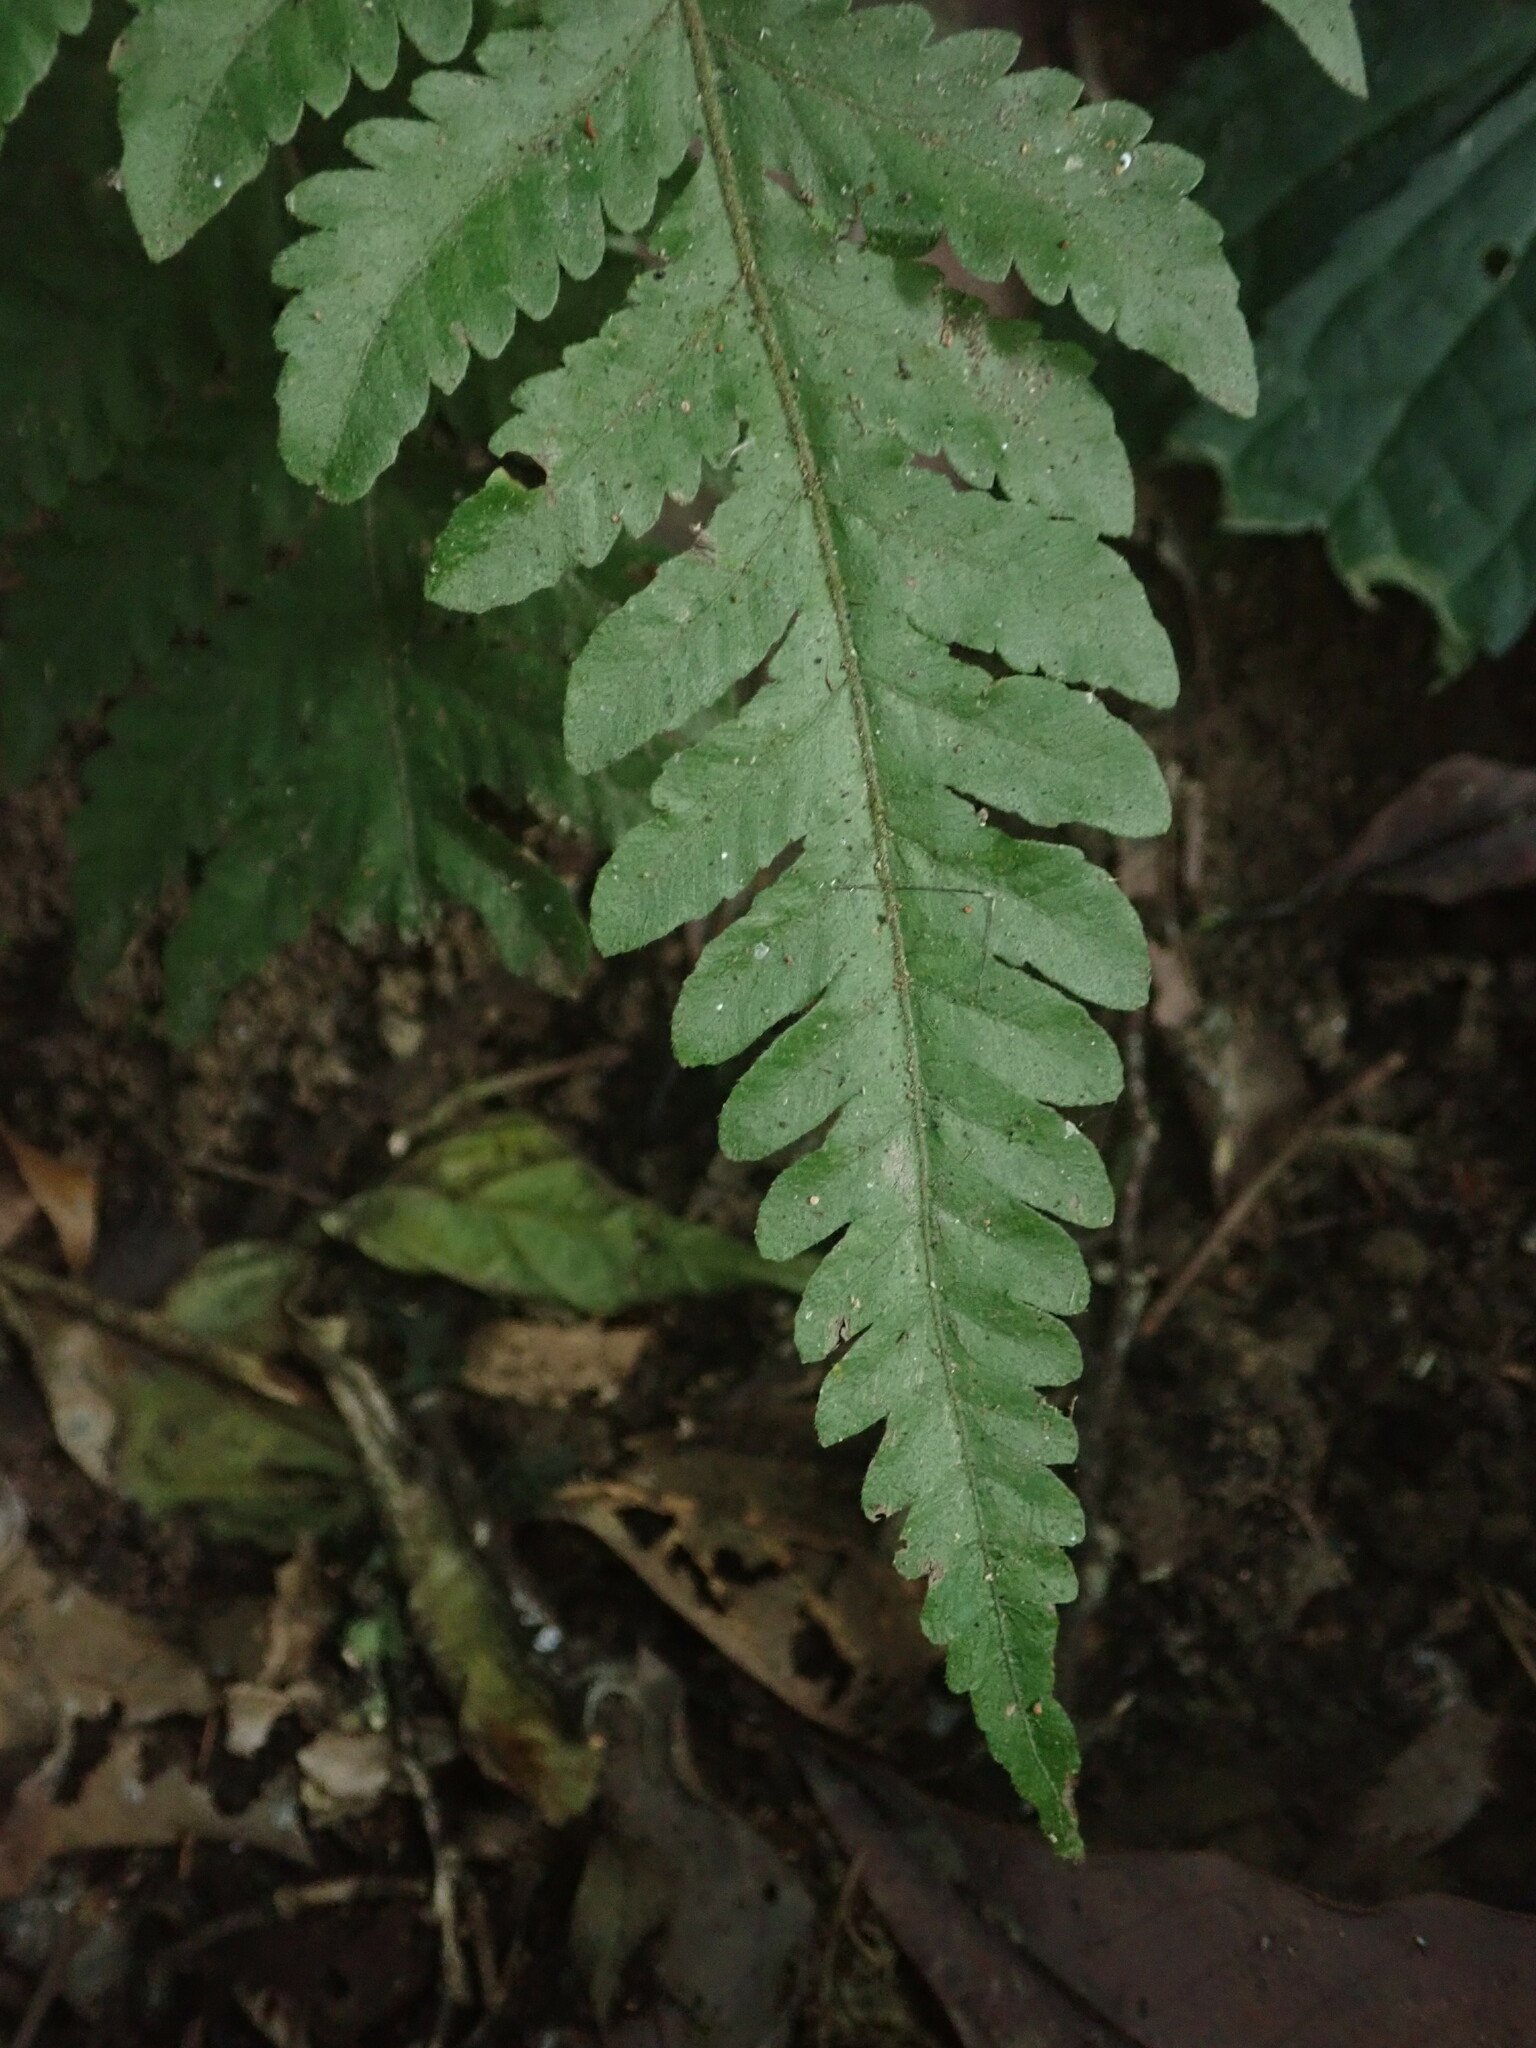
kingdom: Plantae
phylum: Tracheophyta
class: Polypodiopsida
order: Polypodiales
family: Tectariaceae
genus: Tectaria
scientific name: Tectaria dissecta
